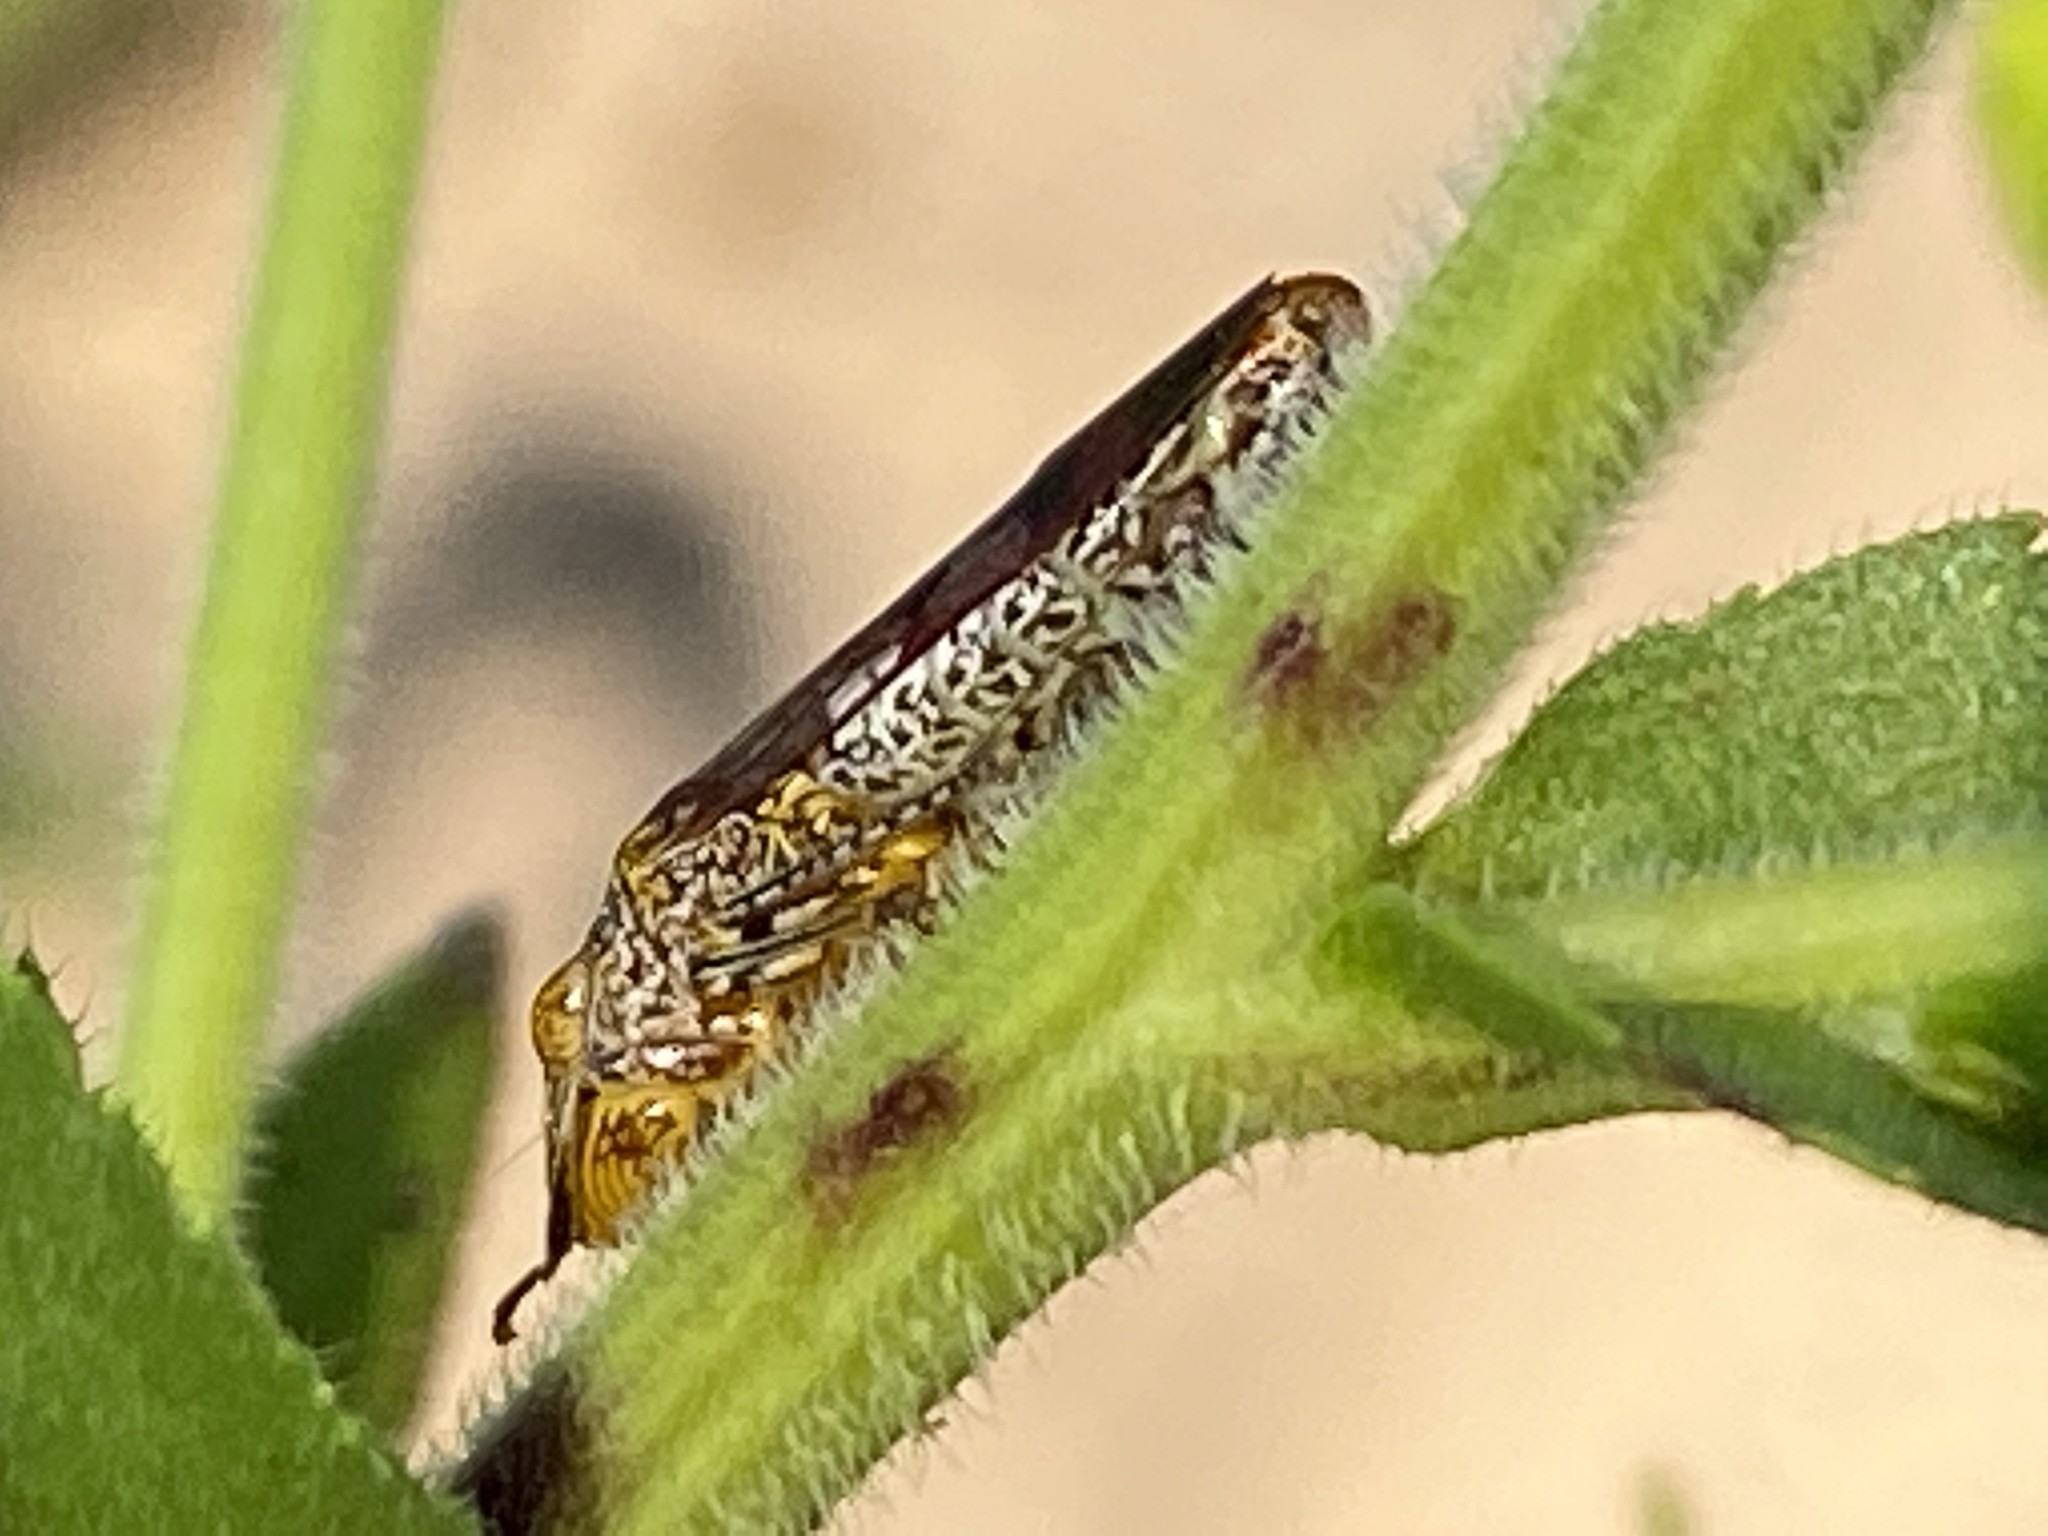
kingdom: Animalia
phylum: Arthropoda
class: Insecta
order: Hemiptera
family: Cicadellidae
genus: Homalodisca
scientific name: Homalodisca vitripennis
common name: Glassy-winged sharpshooter
